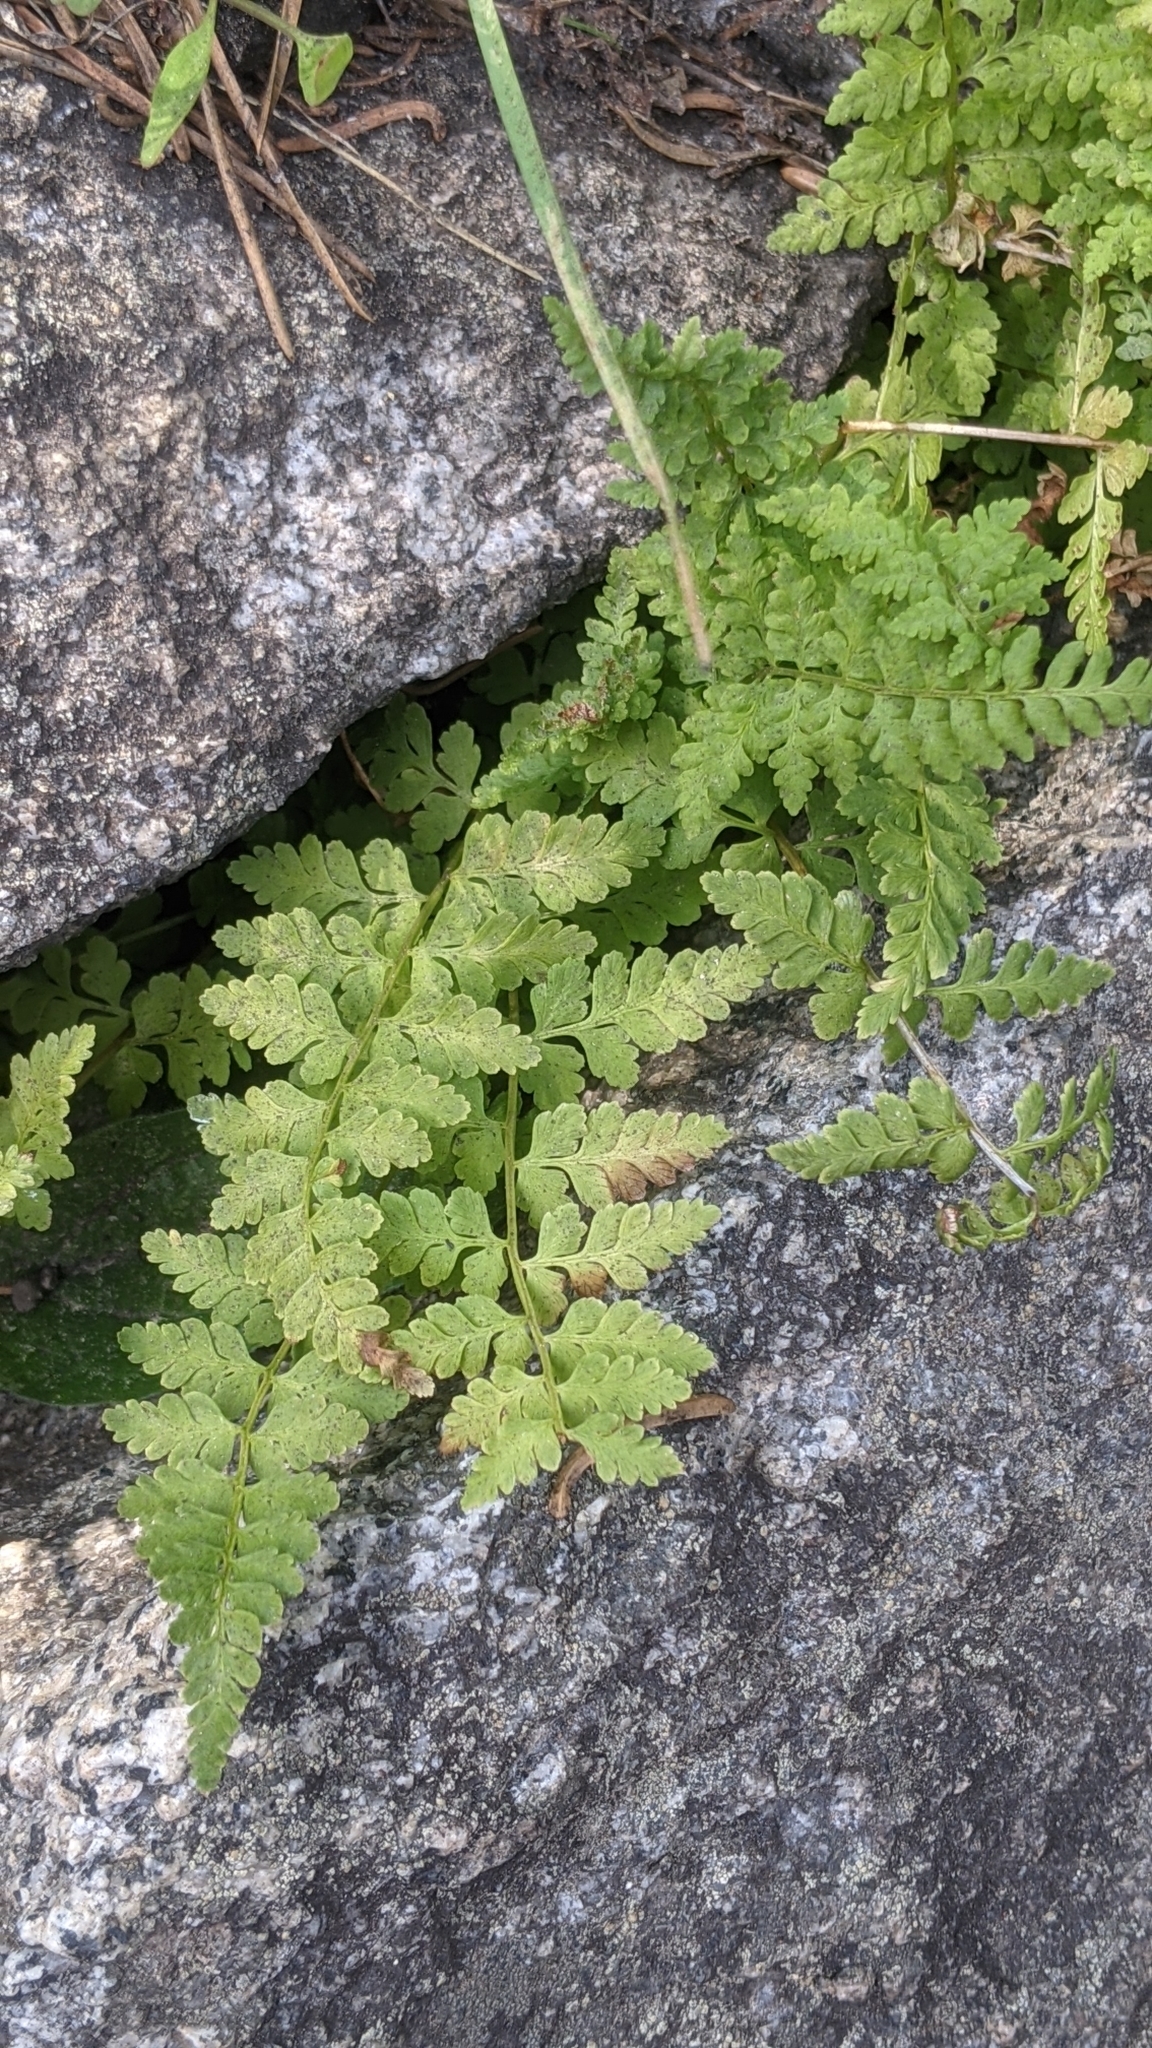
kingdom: Plantae
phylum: Tracheophyta
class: Polypodiopsida
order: Polypodiales
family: Cystopteridaceae
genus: Cystopteris
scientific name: Cystopteris fragilis
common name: Brittle bladder fern
